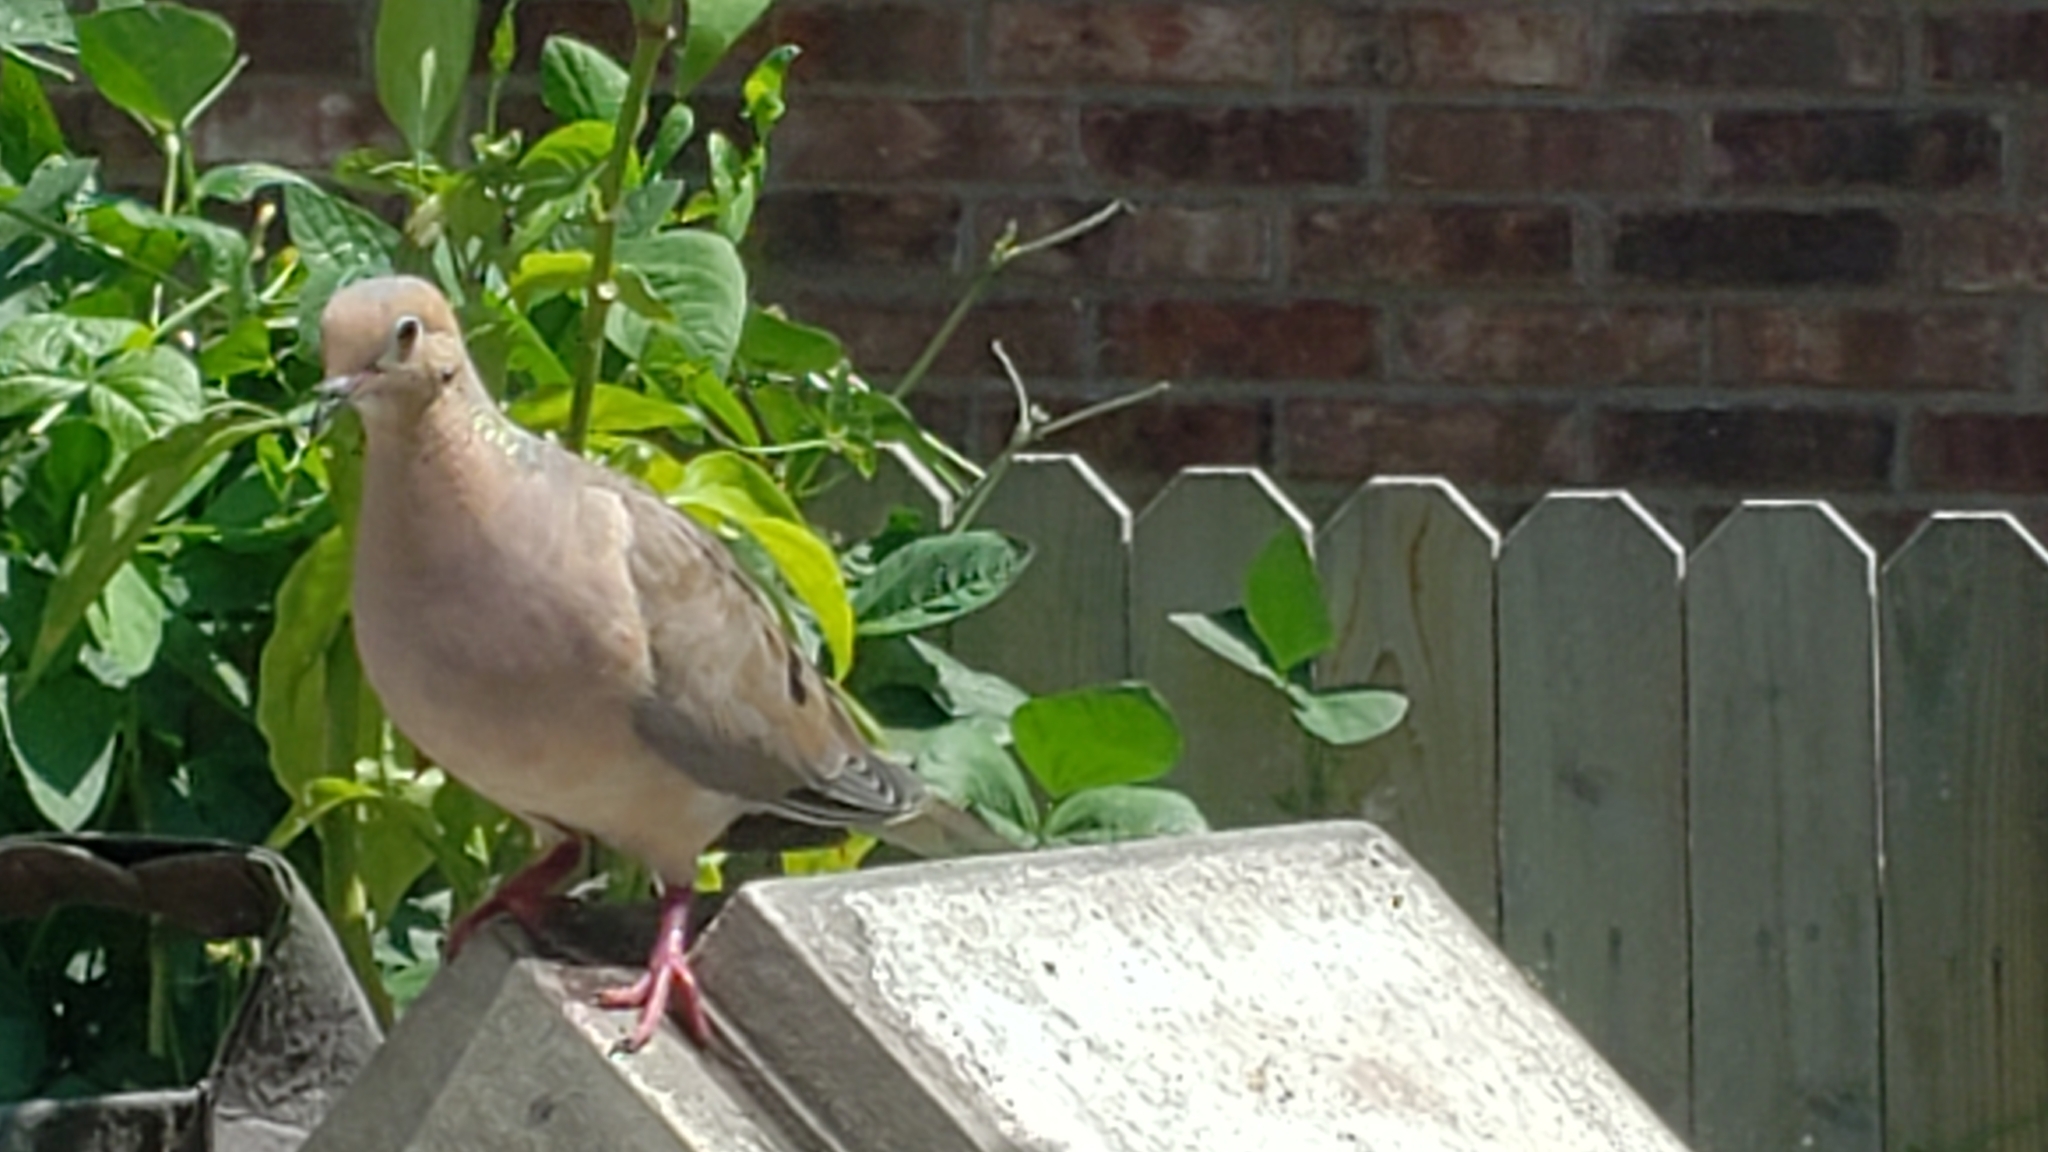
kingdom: Animalia
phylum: Chordata
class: Aves
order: Columbiformes
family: Columbidae
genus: Zenaida
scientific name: Zenaida macroura
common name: Mourning dove
